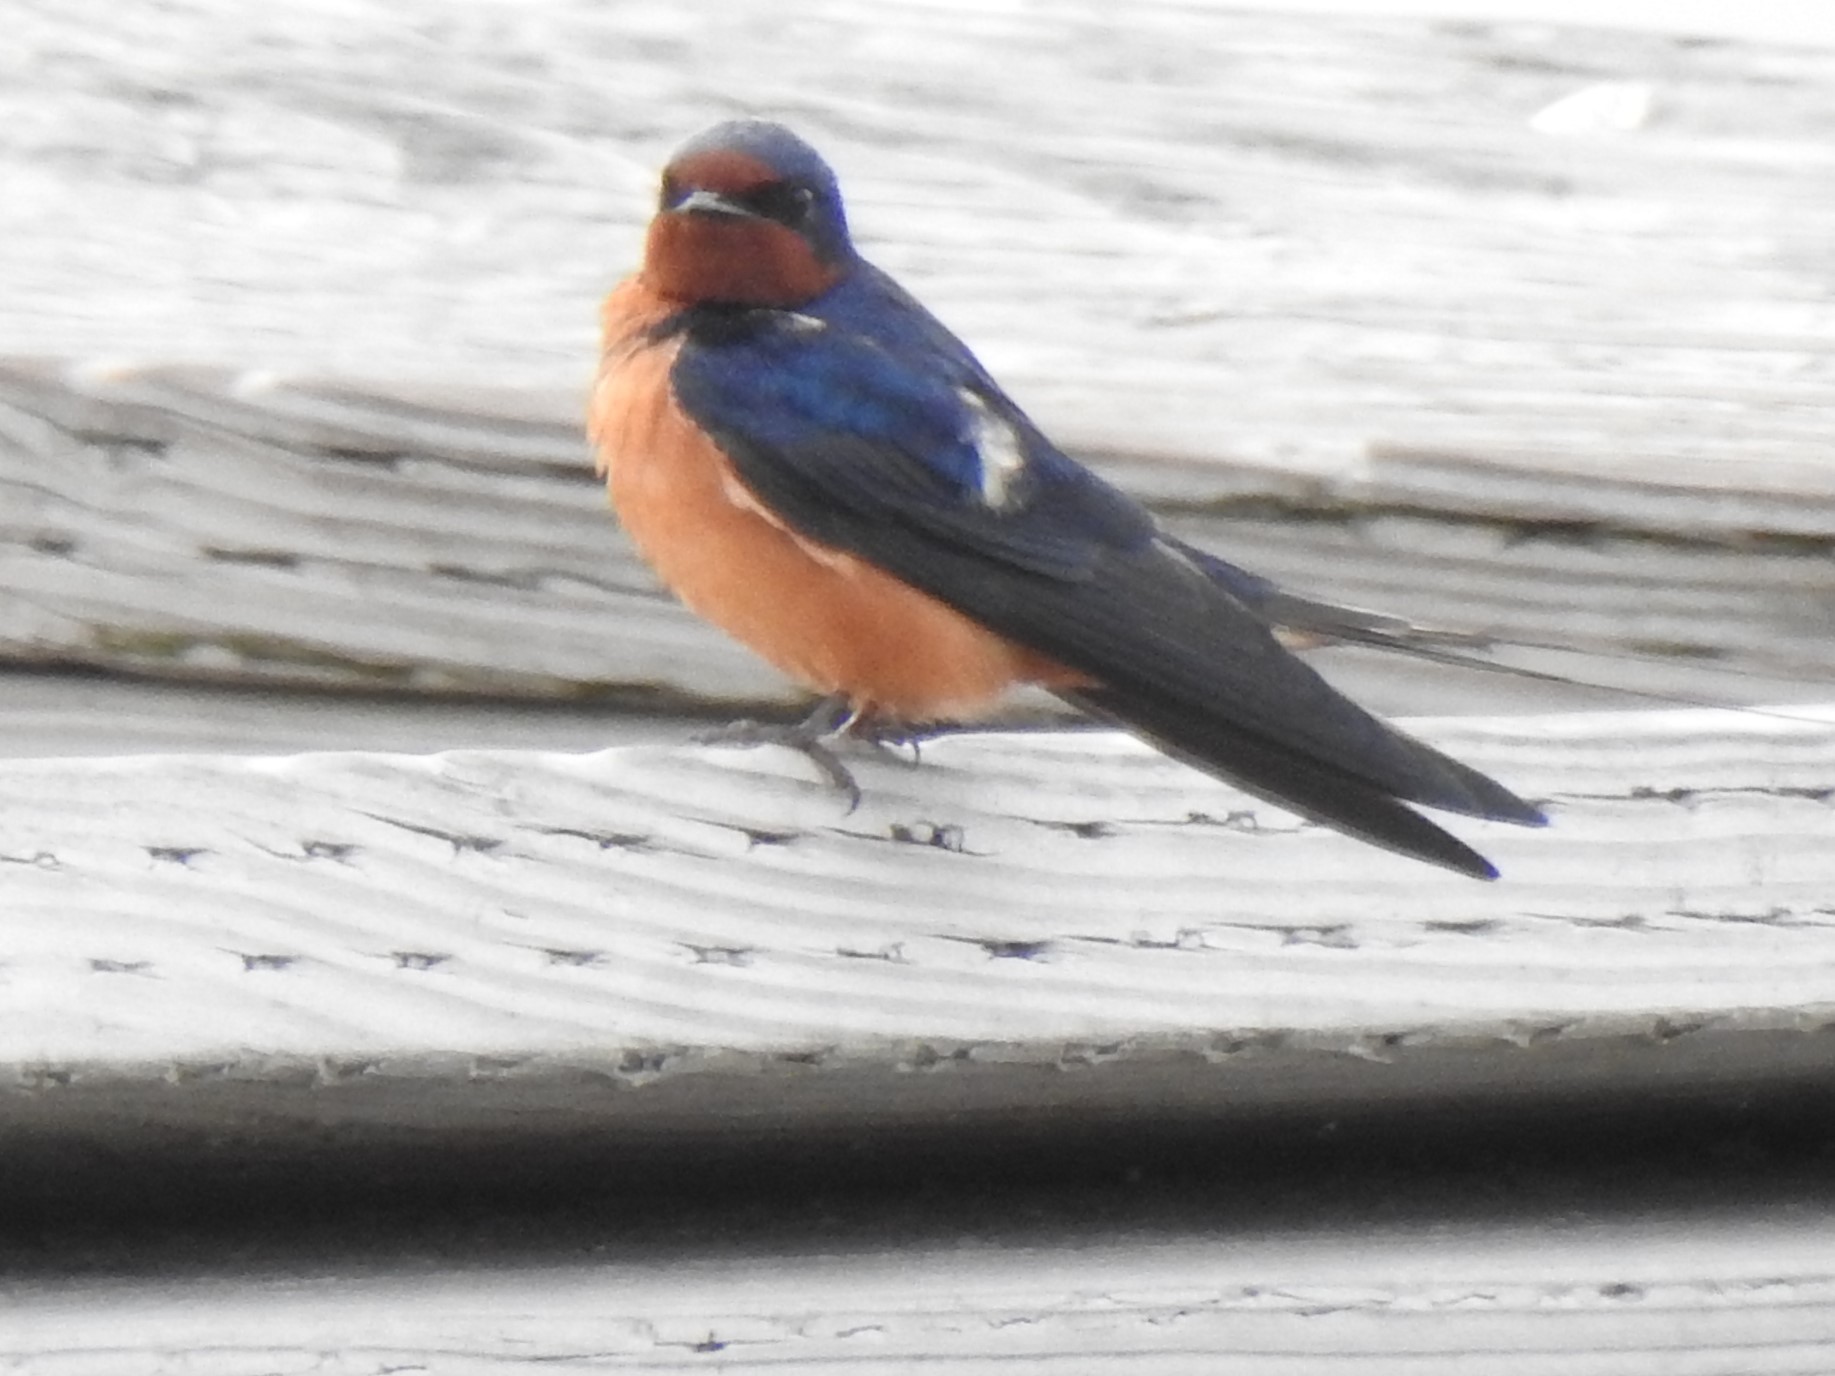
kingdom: Animalia
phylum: Chordata
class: Aves
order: Passeriformes
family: Hirundinidae
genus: Hirundo
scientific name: Hirundo rustica
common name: Barn swallow
